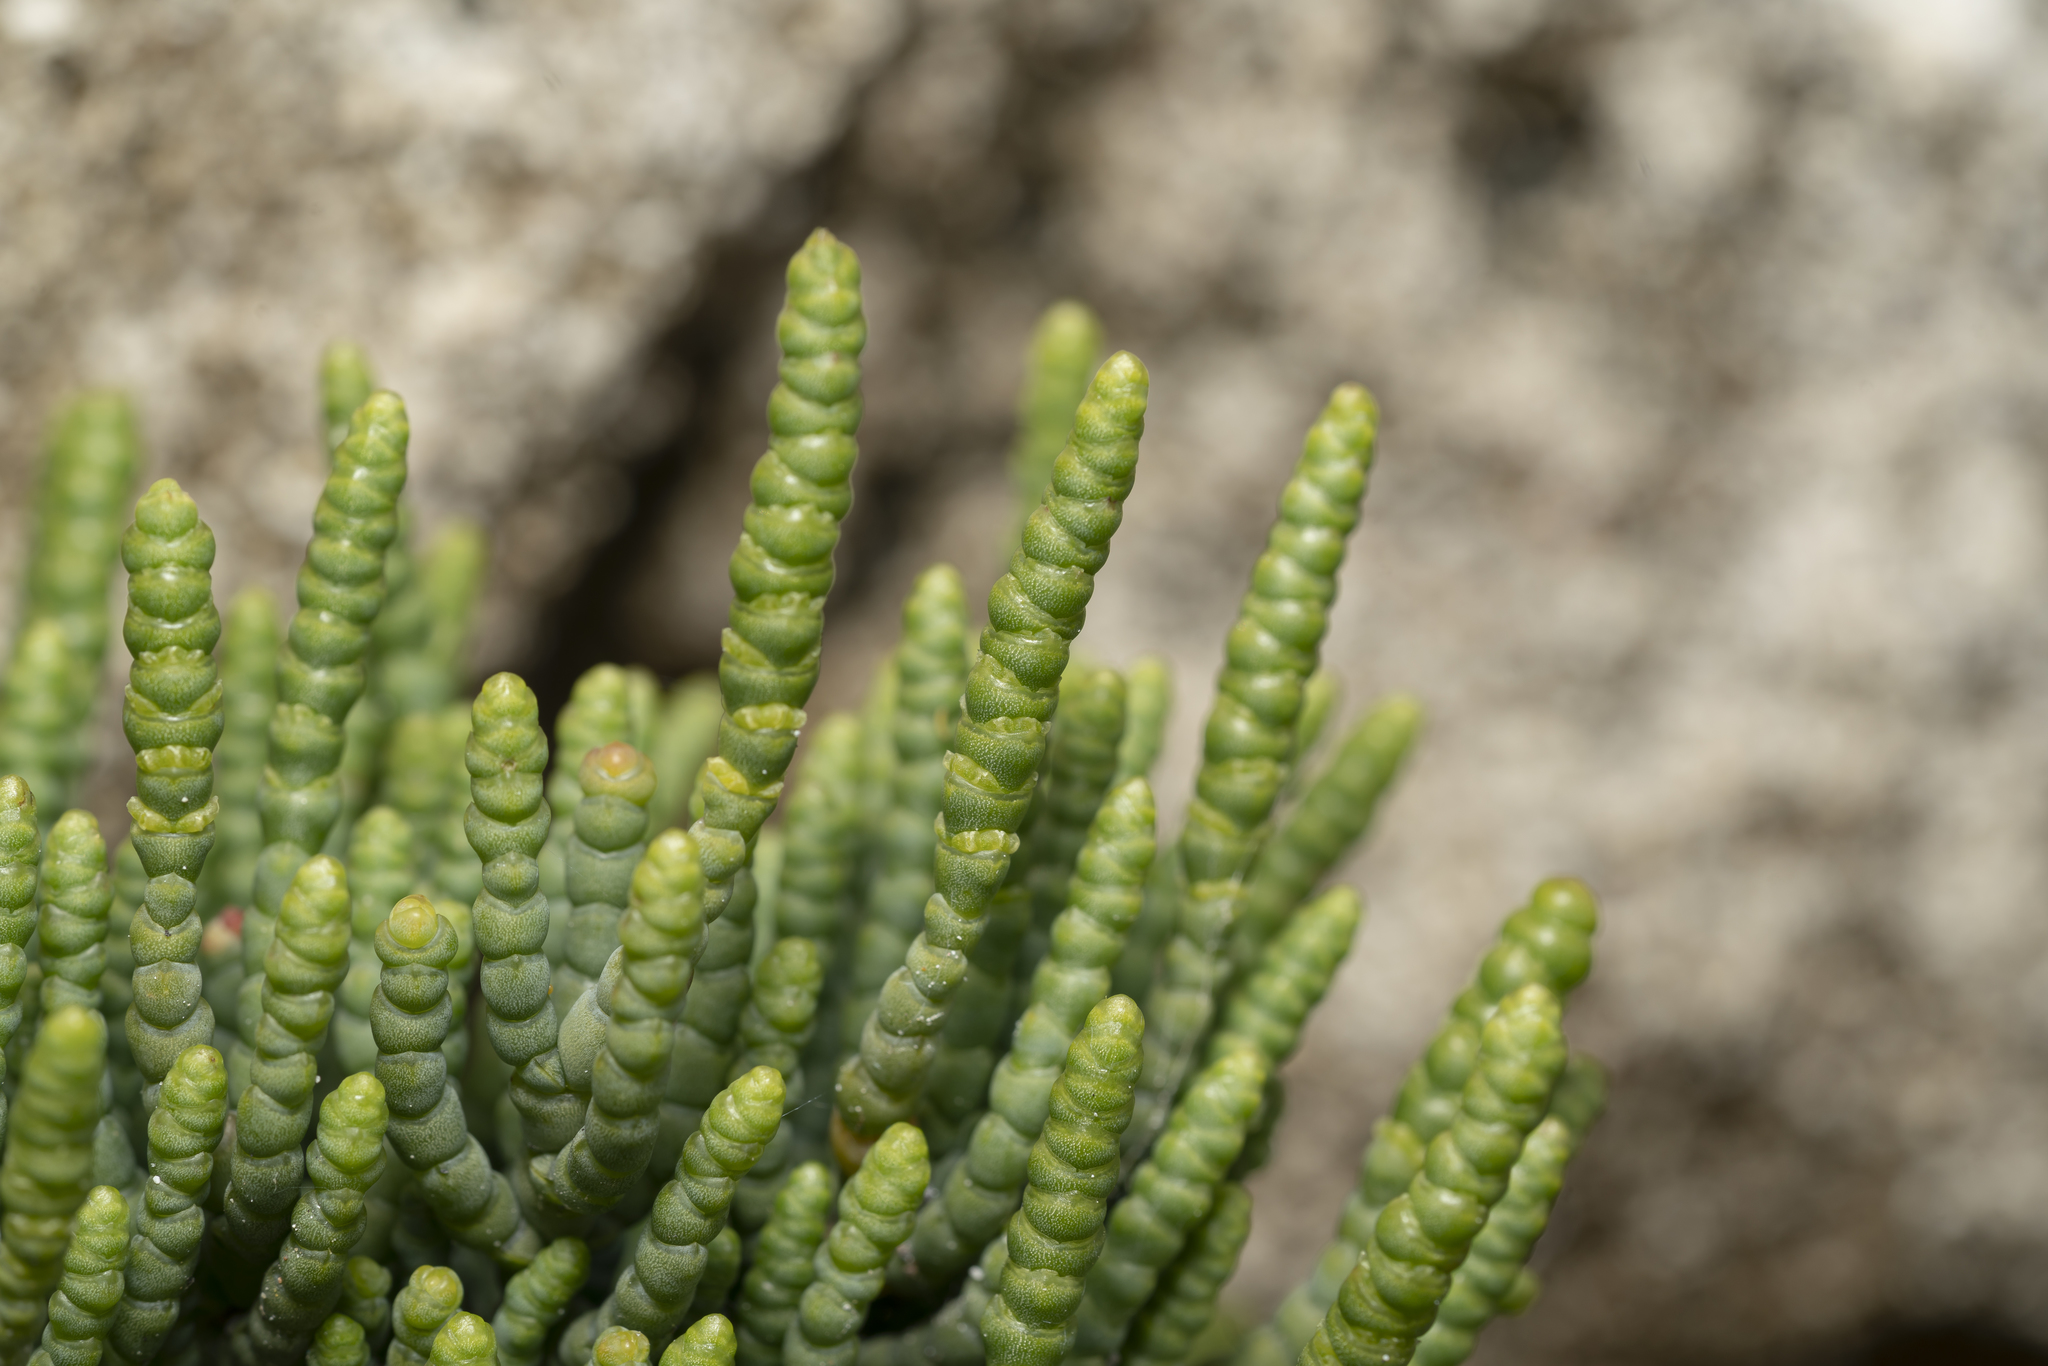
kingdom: Plantae
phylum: Tracheophyta
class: Magnoliopsida
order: Caryophyllales
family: Amaranthaceae
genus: Arthrocaulon
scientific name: Arthrocaulon macrostachyum
